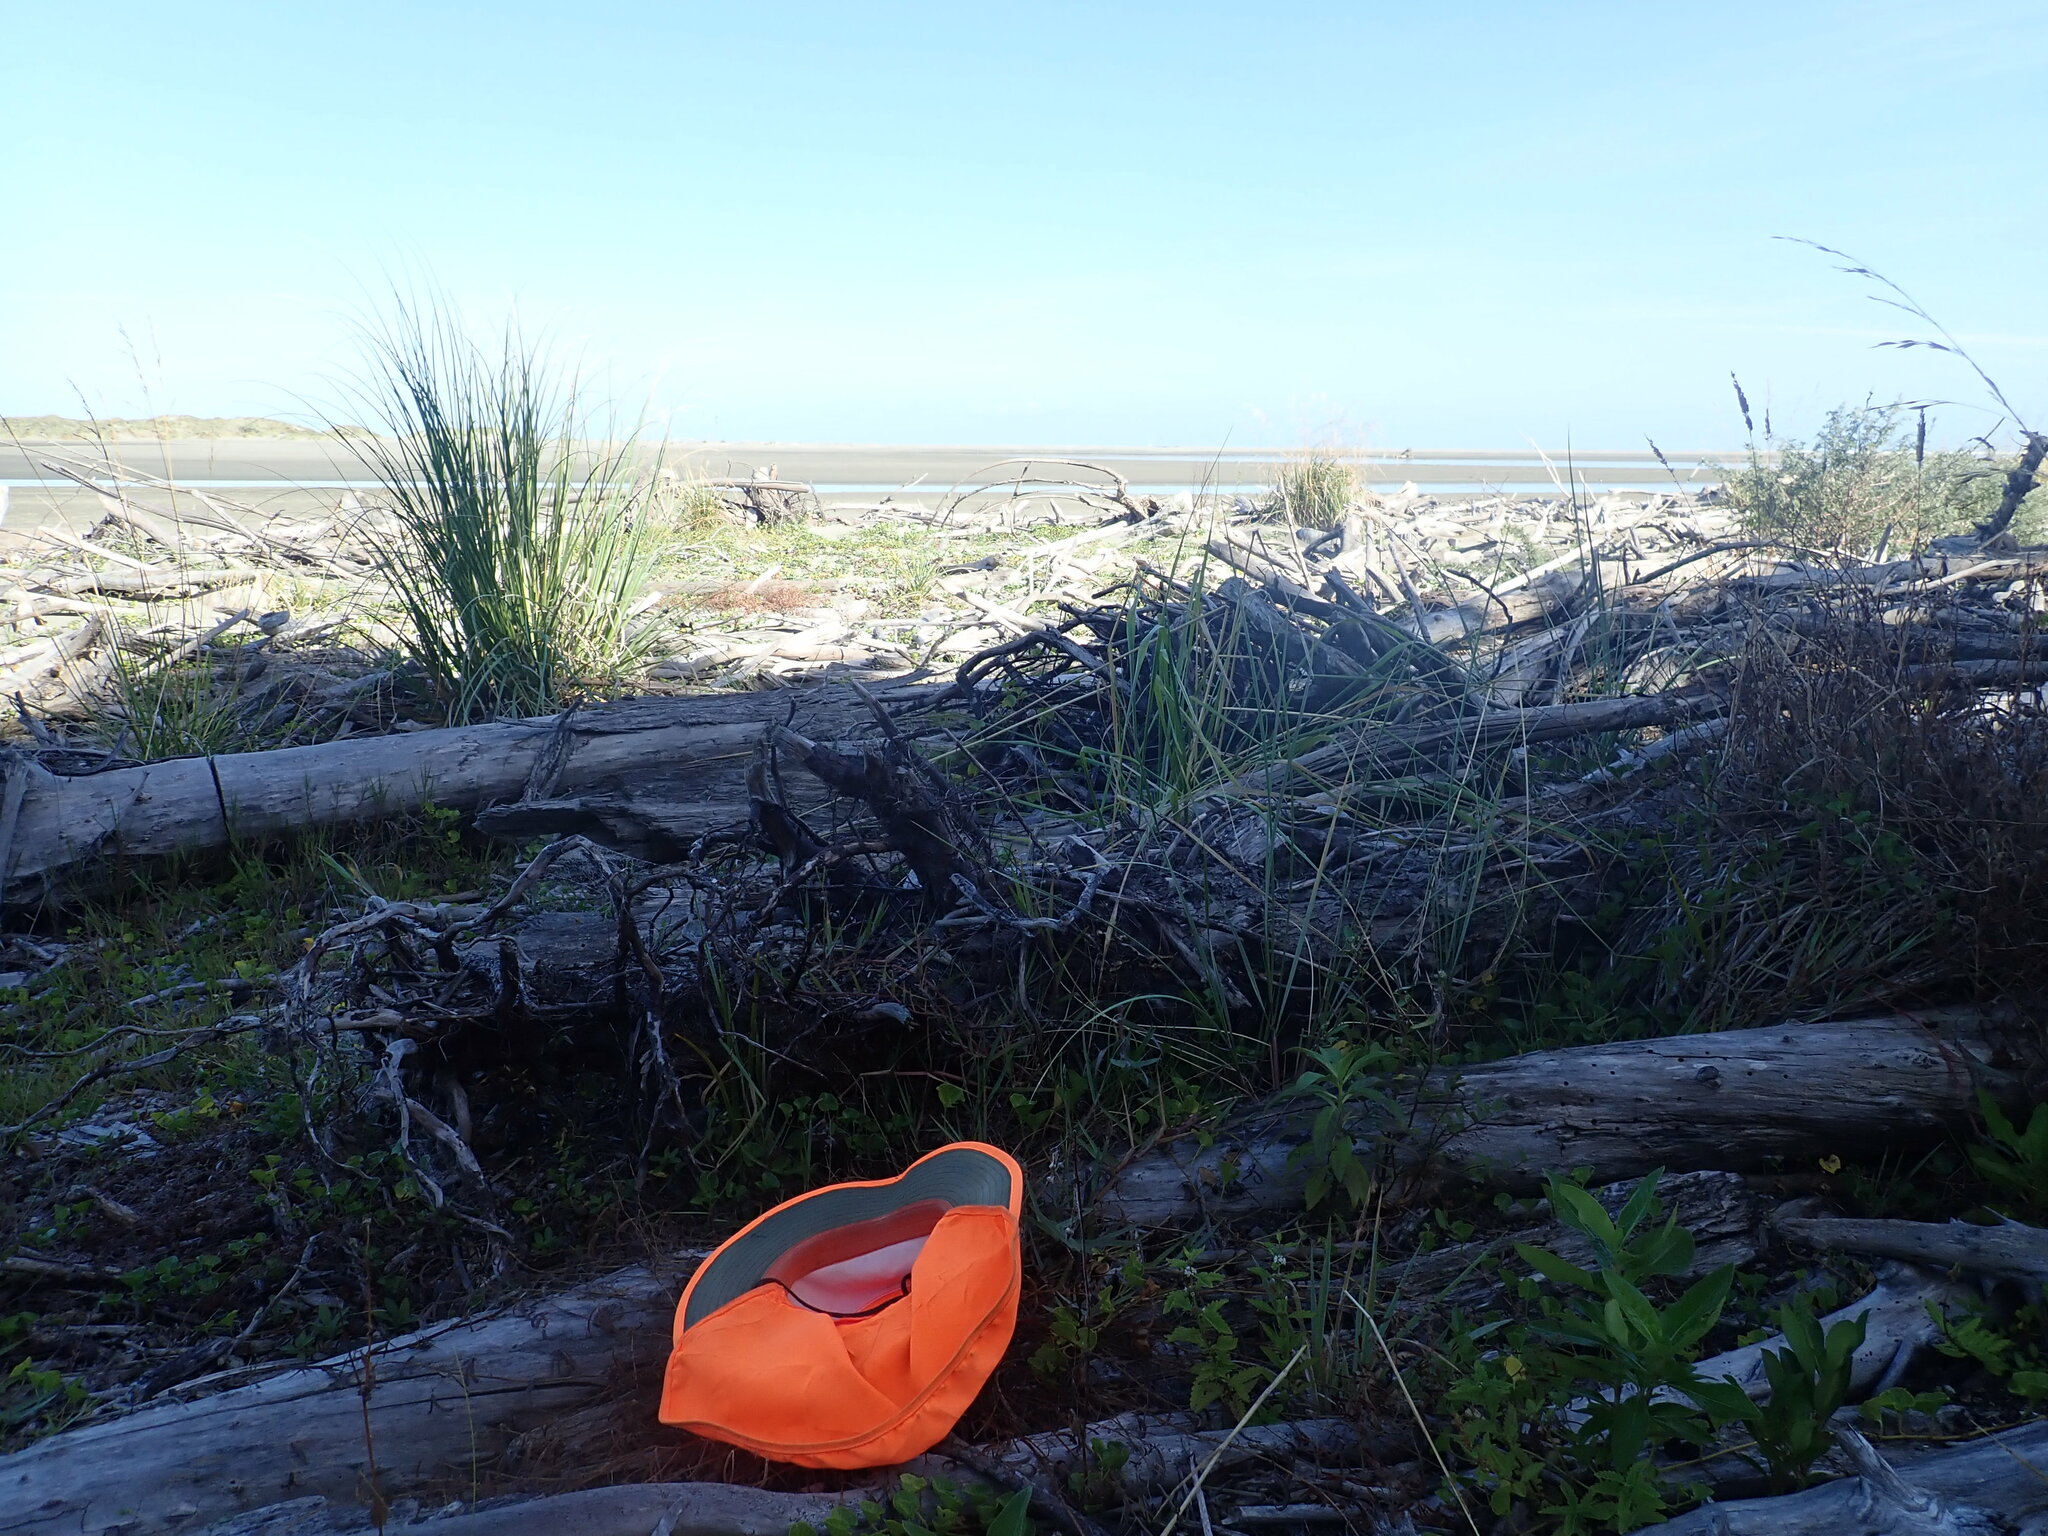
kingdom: Plantae
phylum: Tracheophyta
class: Magnoliopsida
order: Lamiales
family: Lamiaceae
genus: Lycopus
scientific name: Lycopus europaeus
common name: European bugleweed
